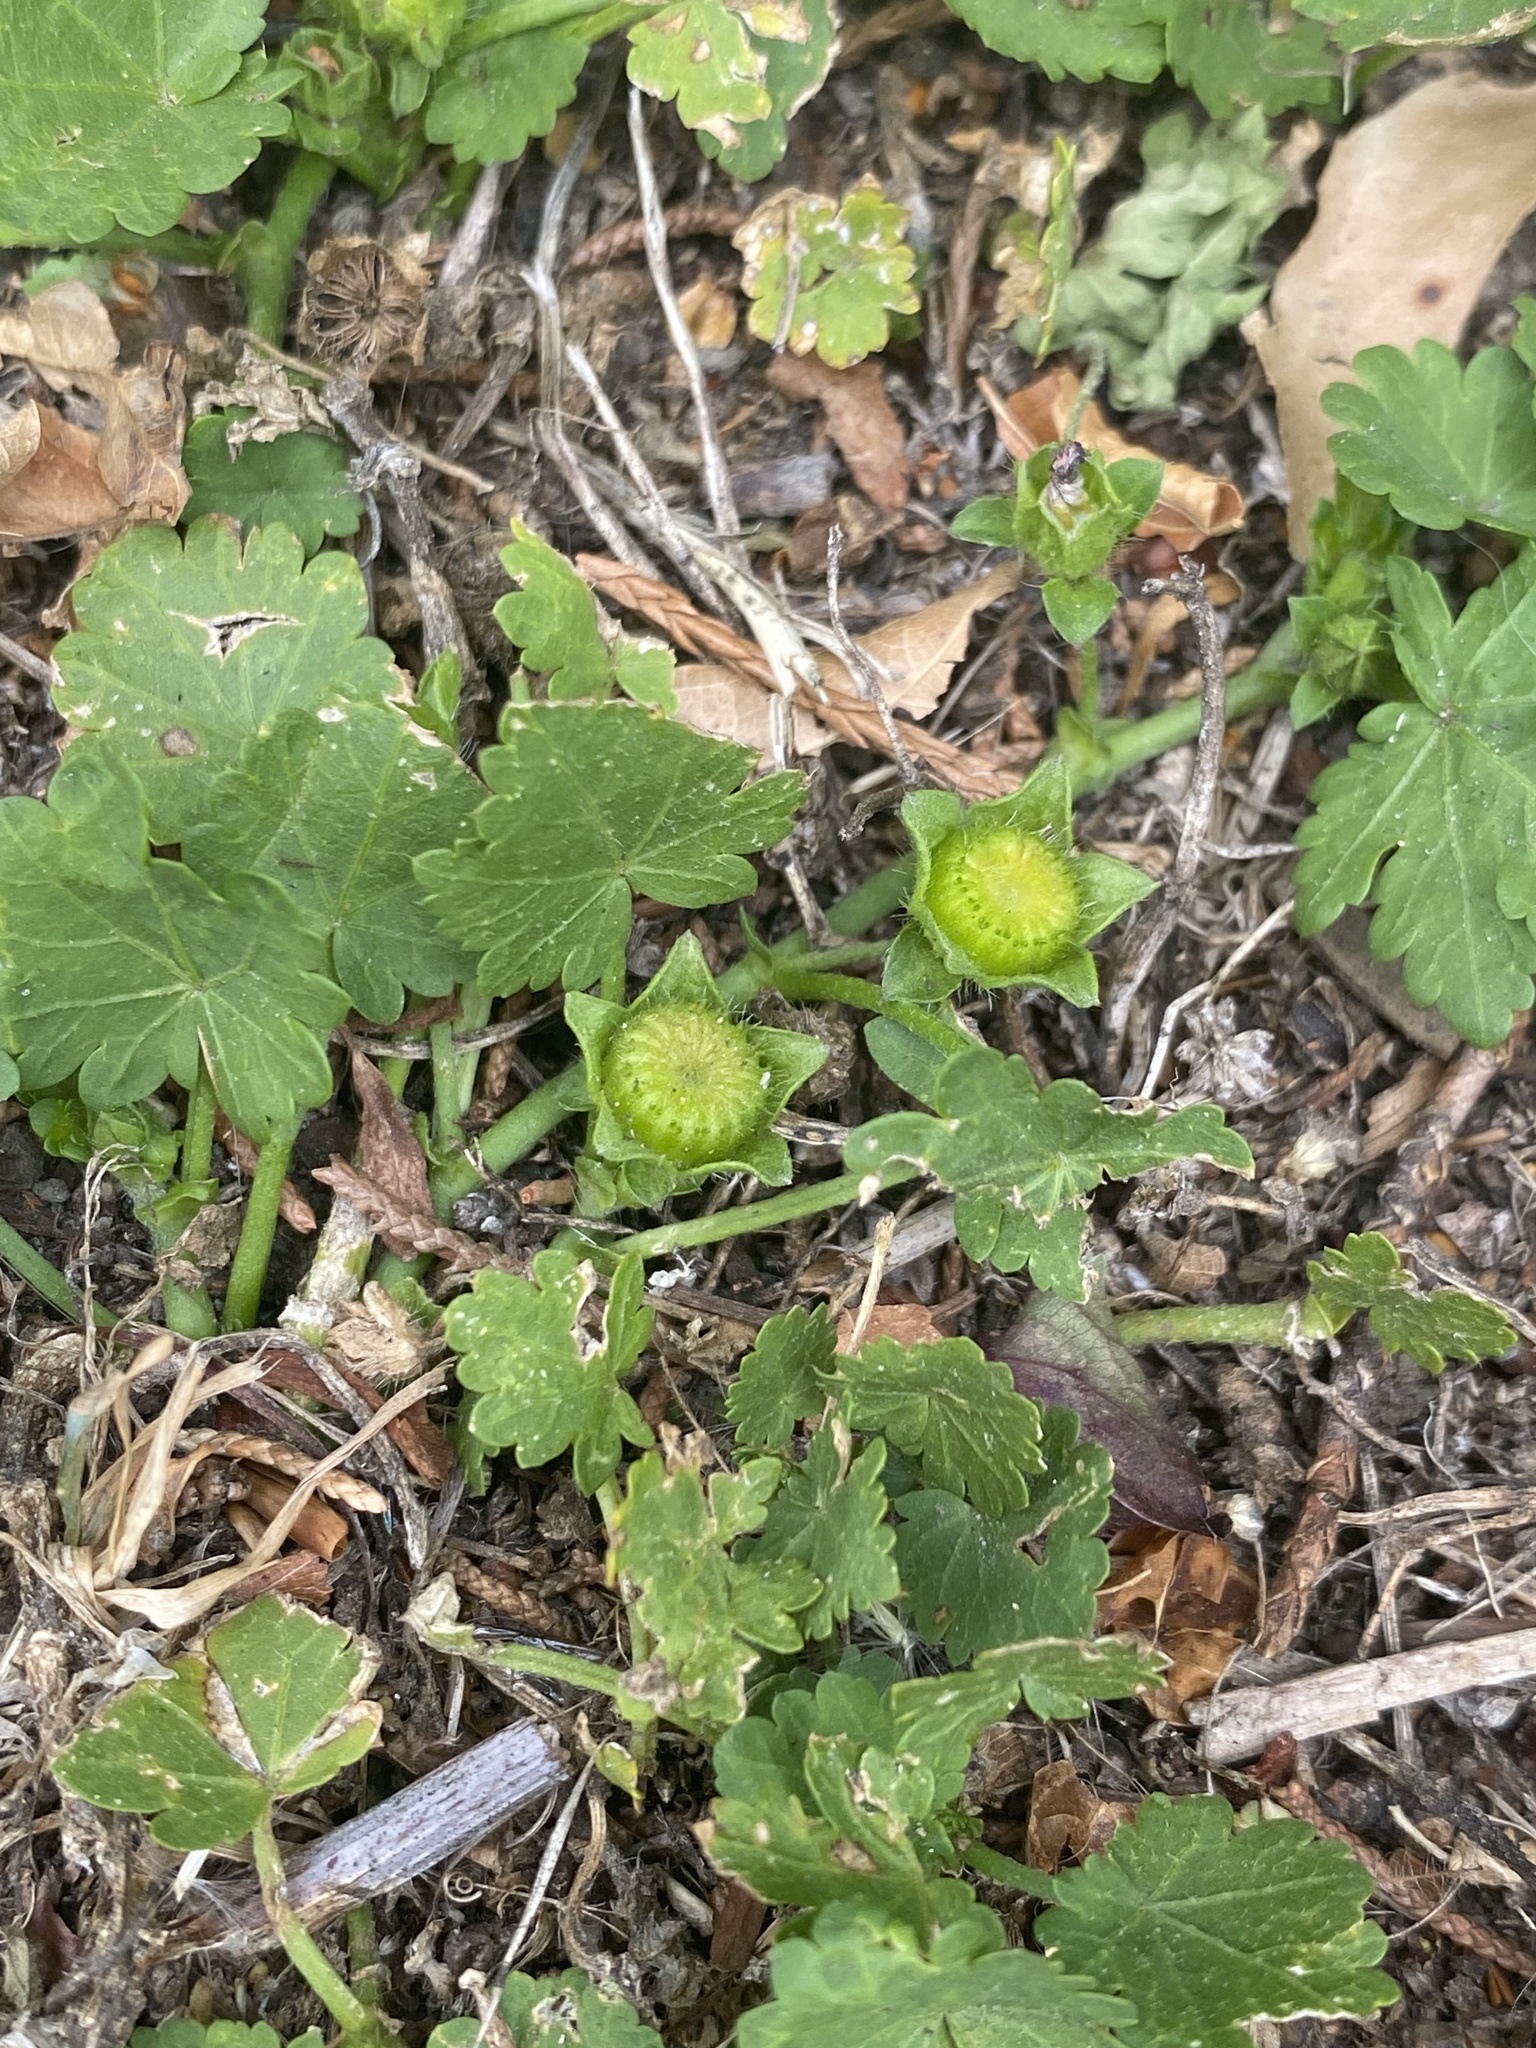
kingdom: Plantae
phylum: Tracheophyta
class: Magnoliopsida
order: Malvales
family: Malvaceae
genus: Modiola
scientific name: Modiola caroliniana
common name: Carolina bristlemallow
